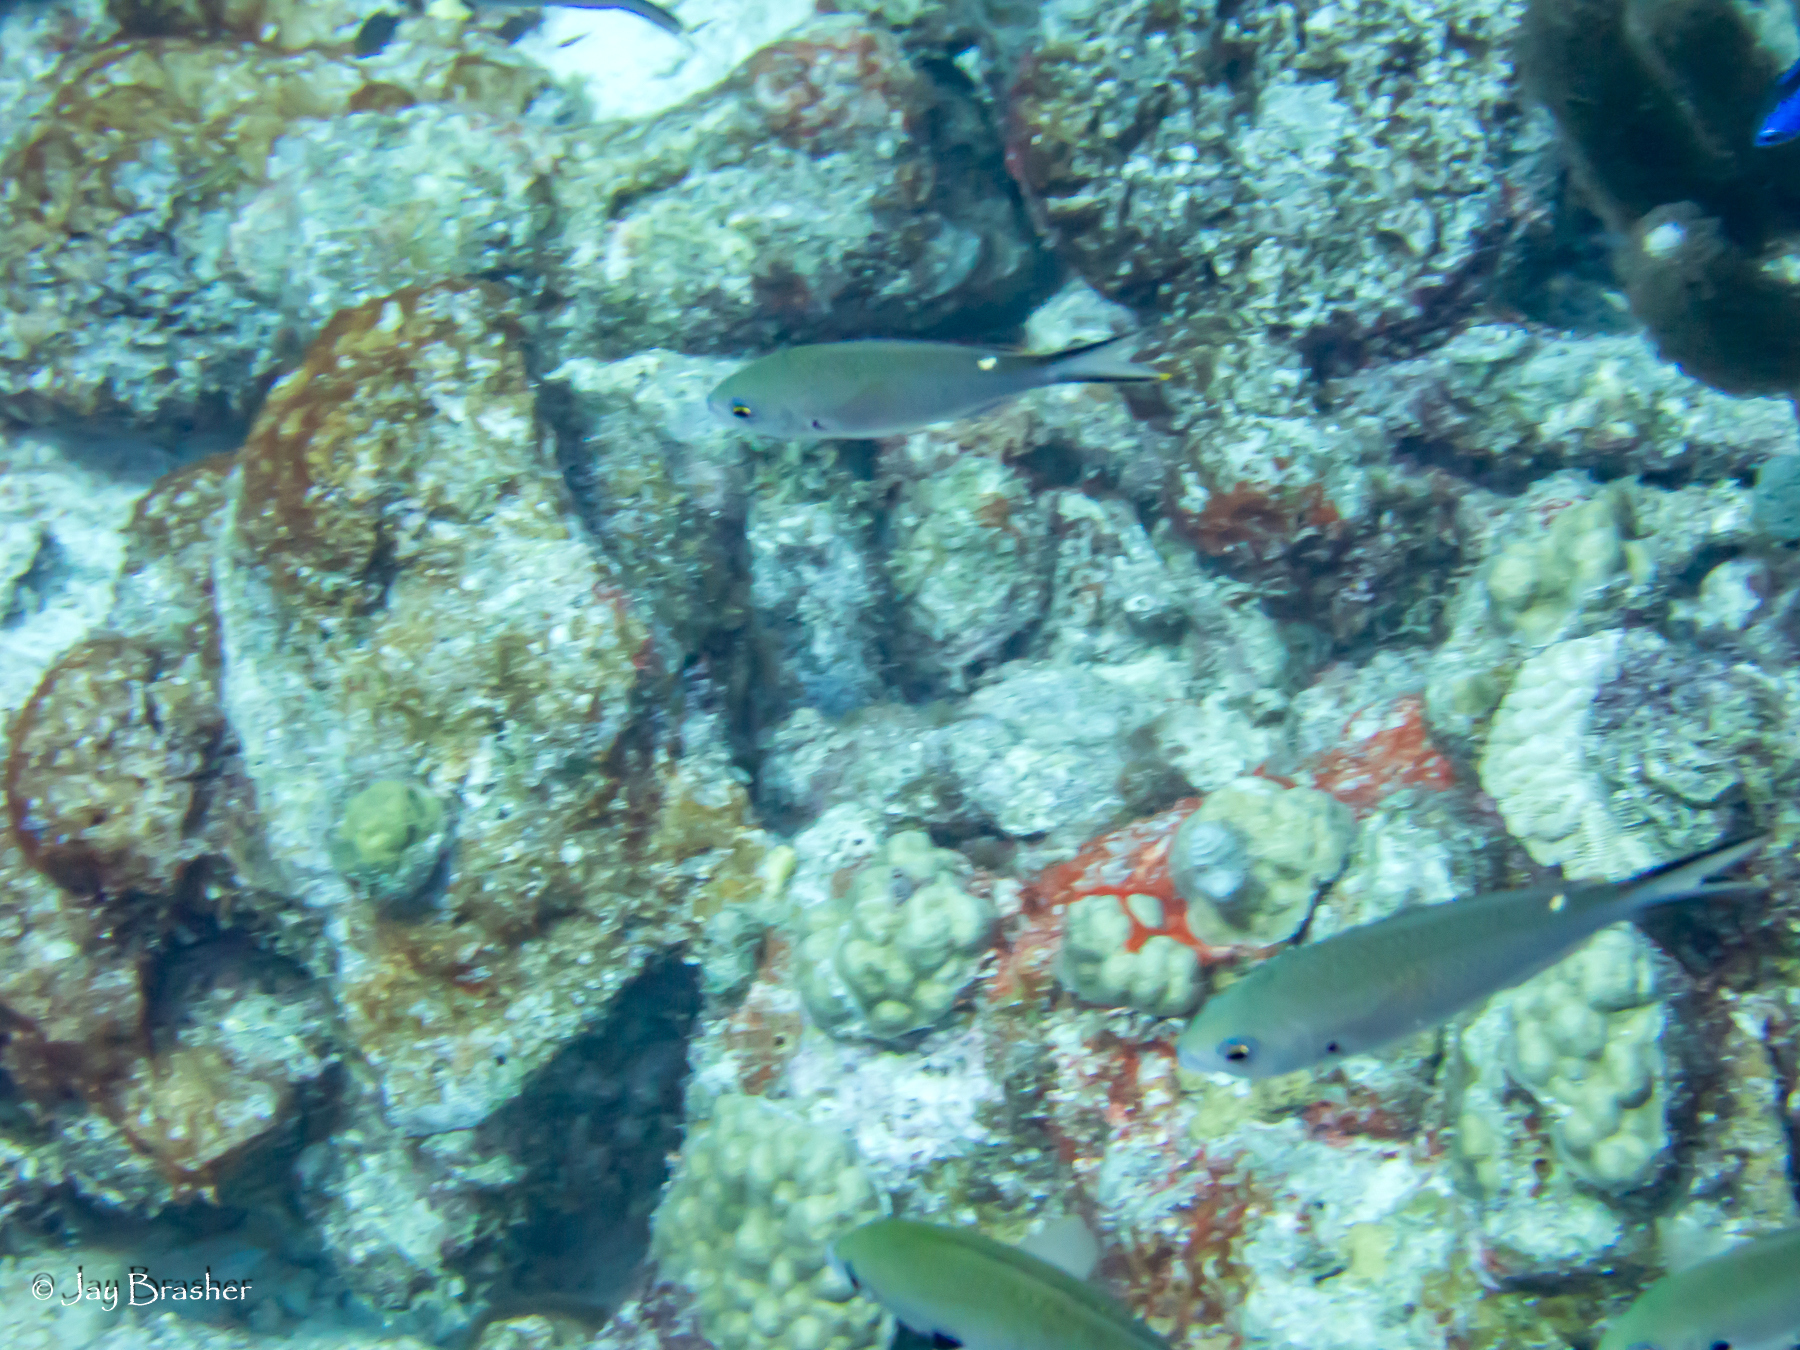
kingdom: Animalia
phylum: Chordata
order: Perciformes
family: Pomacentridae
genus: Chromis
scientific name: Chromis multilineata
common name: Brown chromis
